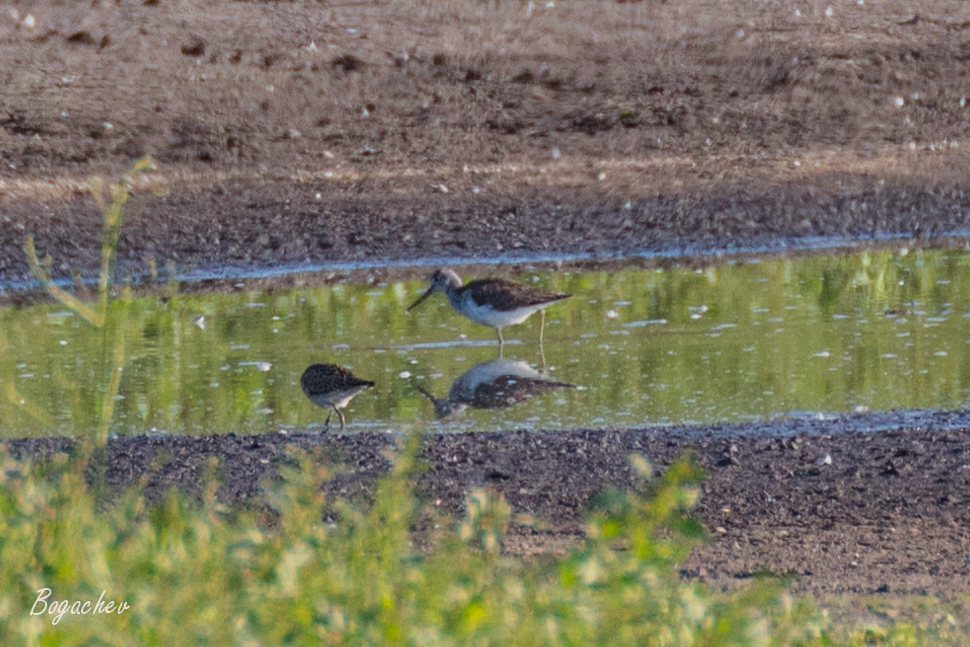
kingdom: Animalia
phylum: Chordata
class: Aves
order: Charadriiformes
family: Scolopacidae
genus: Tringa
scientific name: Tringa nebularia
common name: Common greenshank
